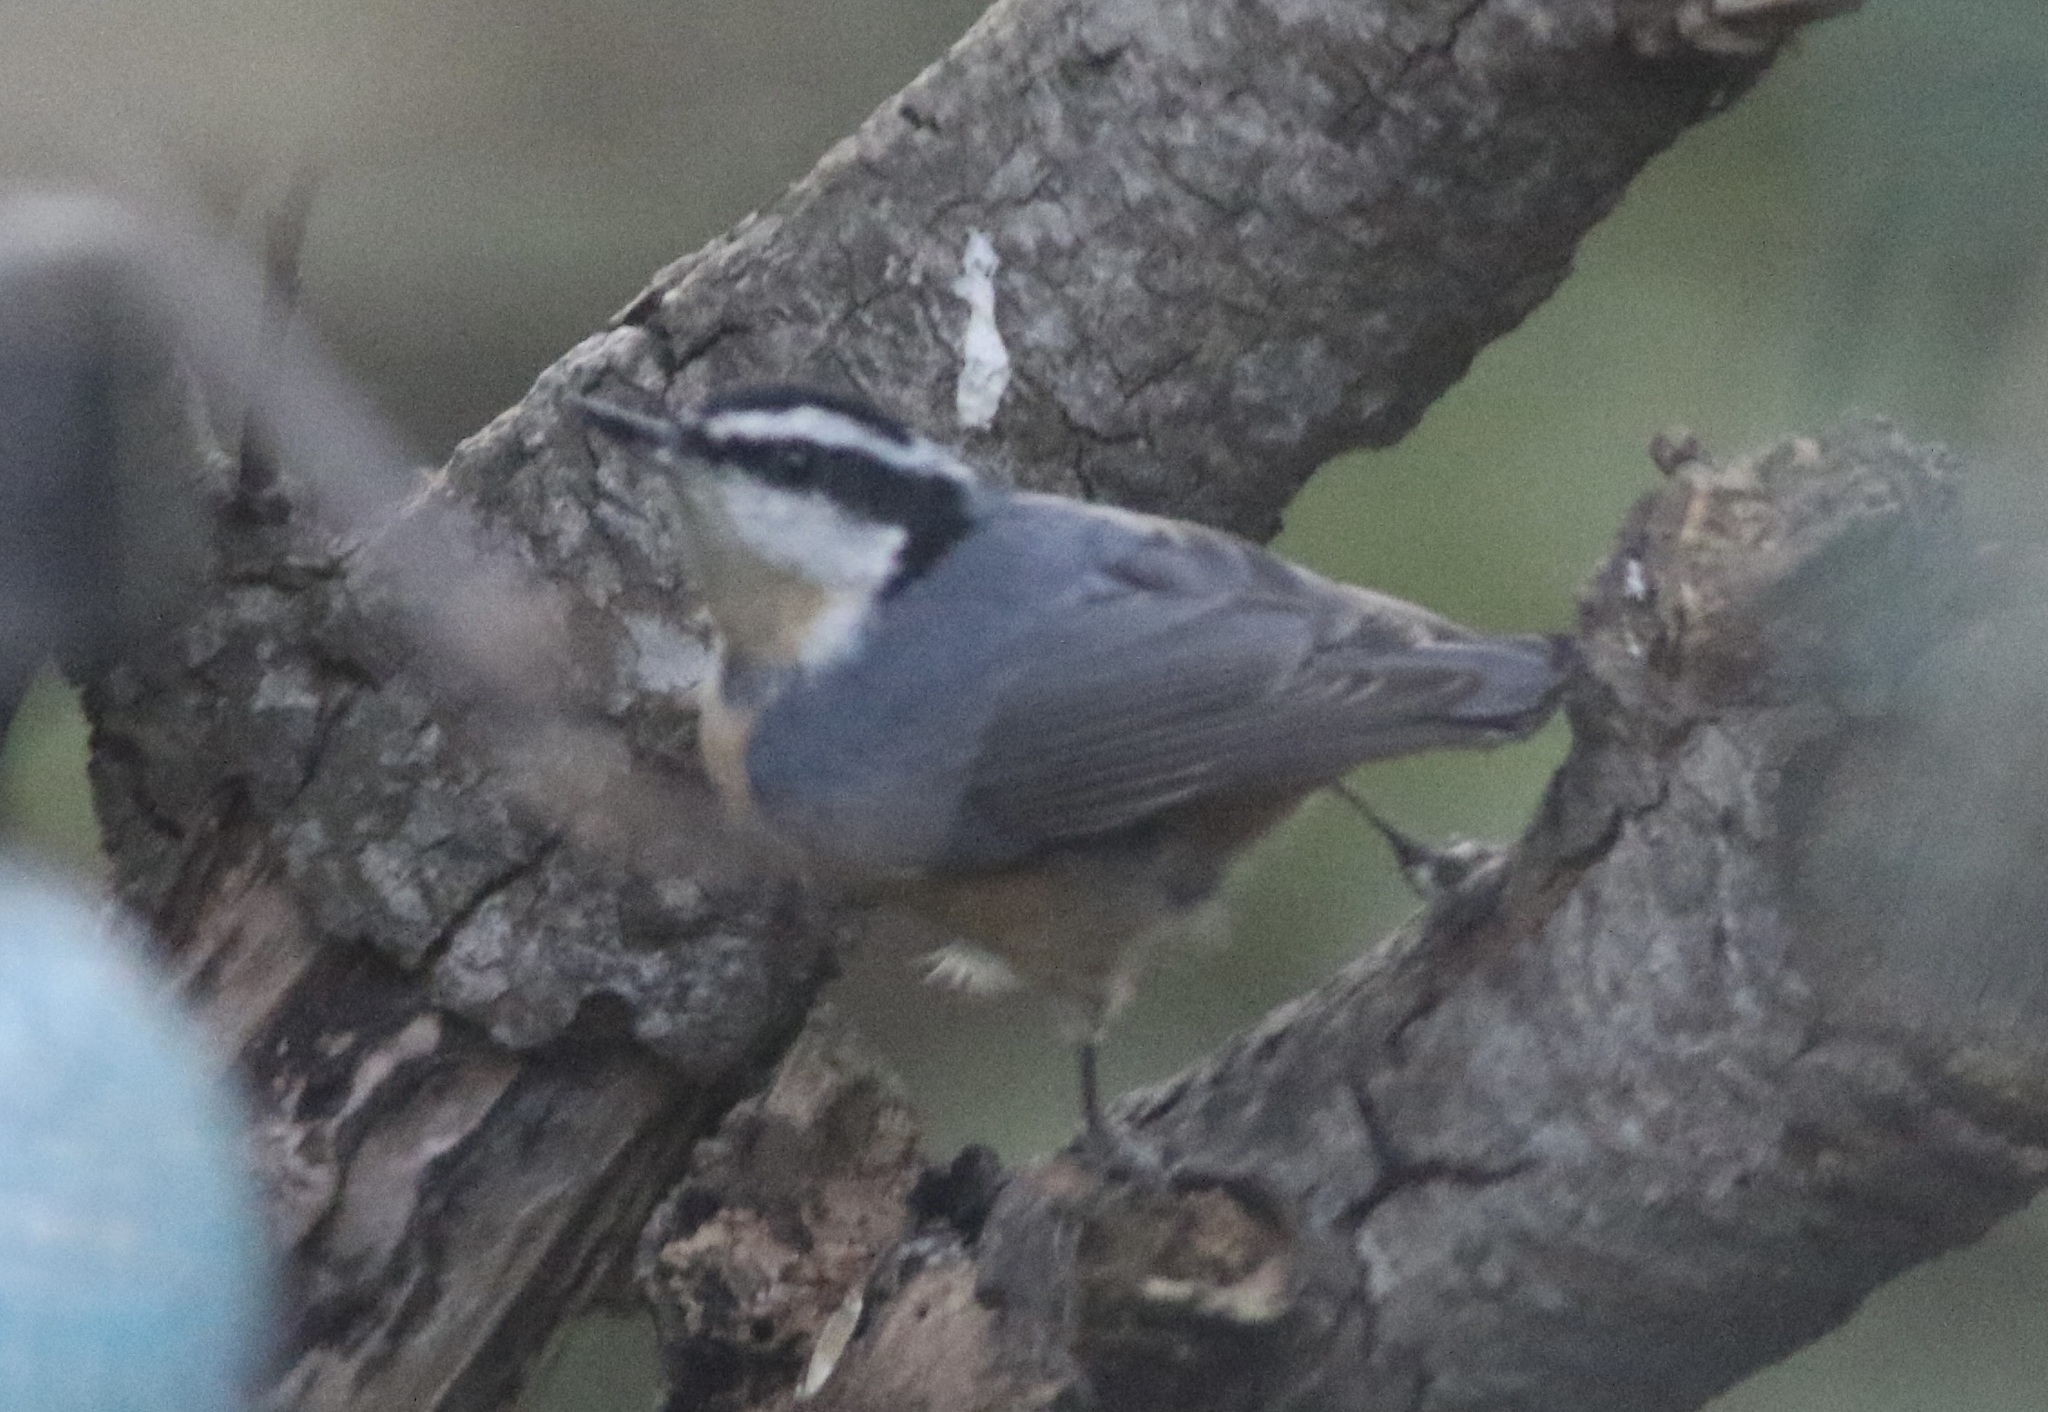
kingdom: Animalia
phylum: Chordata
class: Aves
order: Passeriformes
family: Sittidae
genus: Sitta
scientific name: Sitta canadensis
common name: Red-breasted nuthatch
